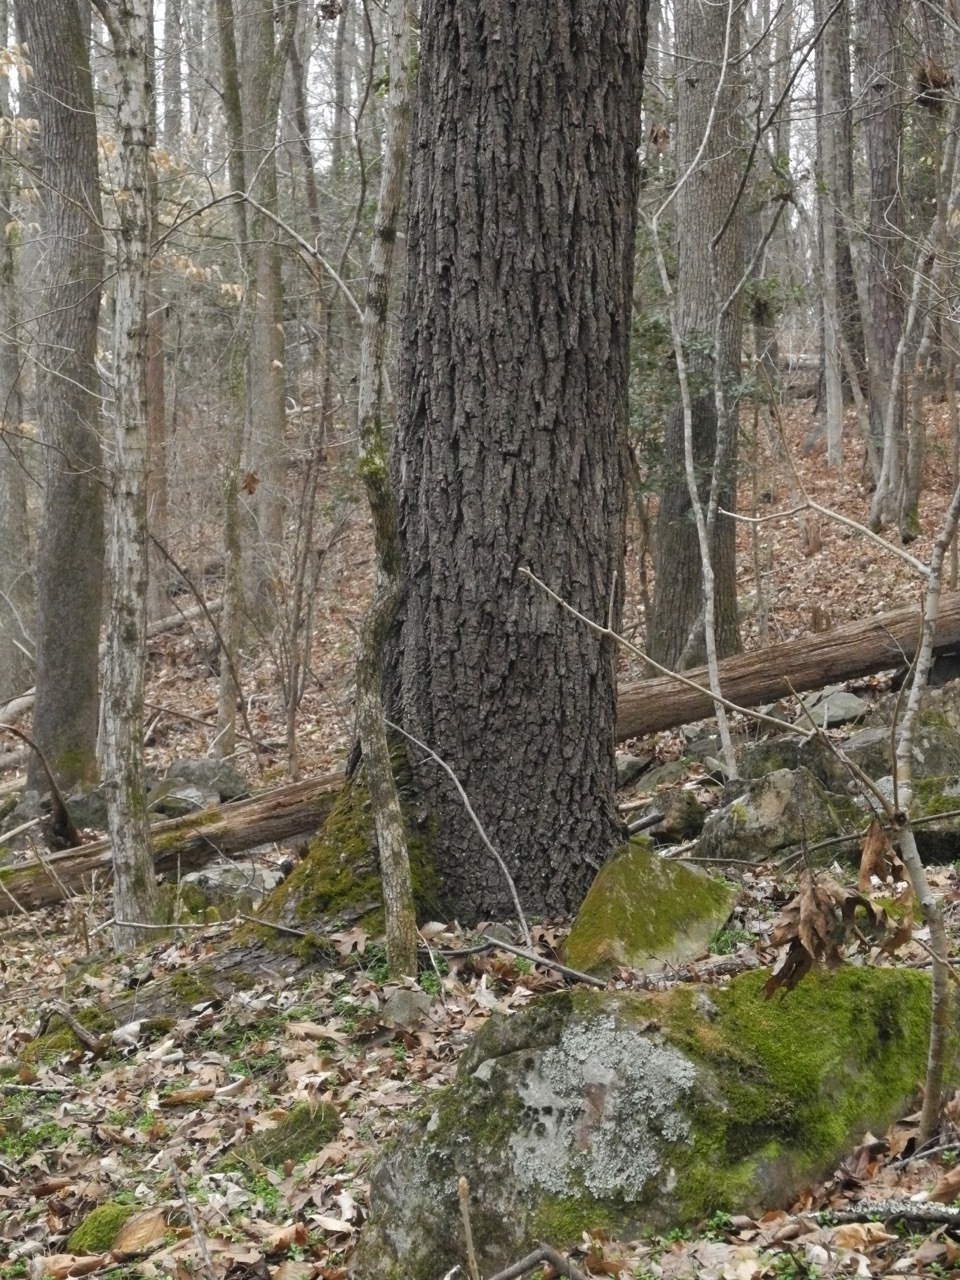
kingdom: Plantae
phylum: Tracheophyta
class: Magnoliopsida
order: Fagales
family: Juglandaceae
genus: Juglans
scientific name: Juglans nigra
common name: Black walnut
